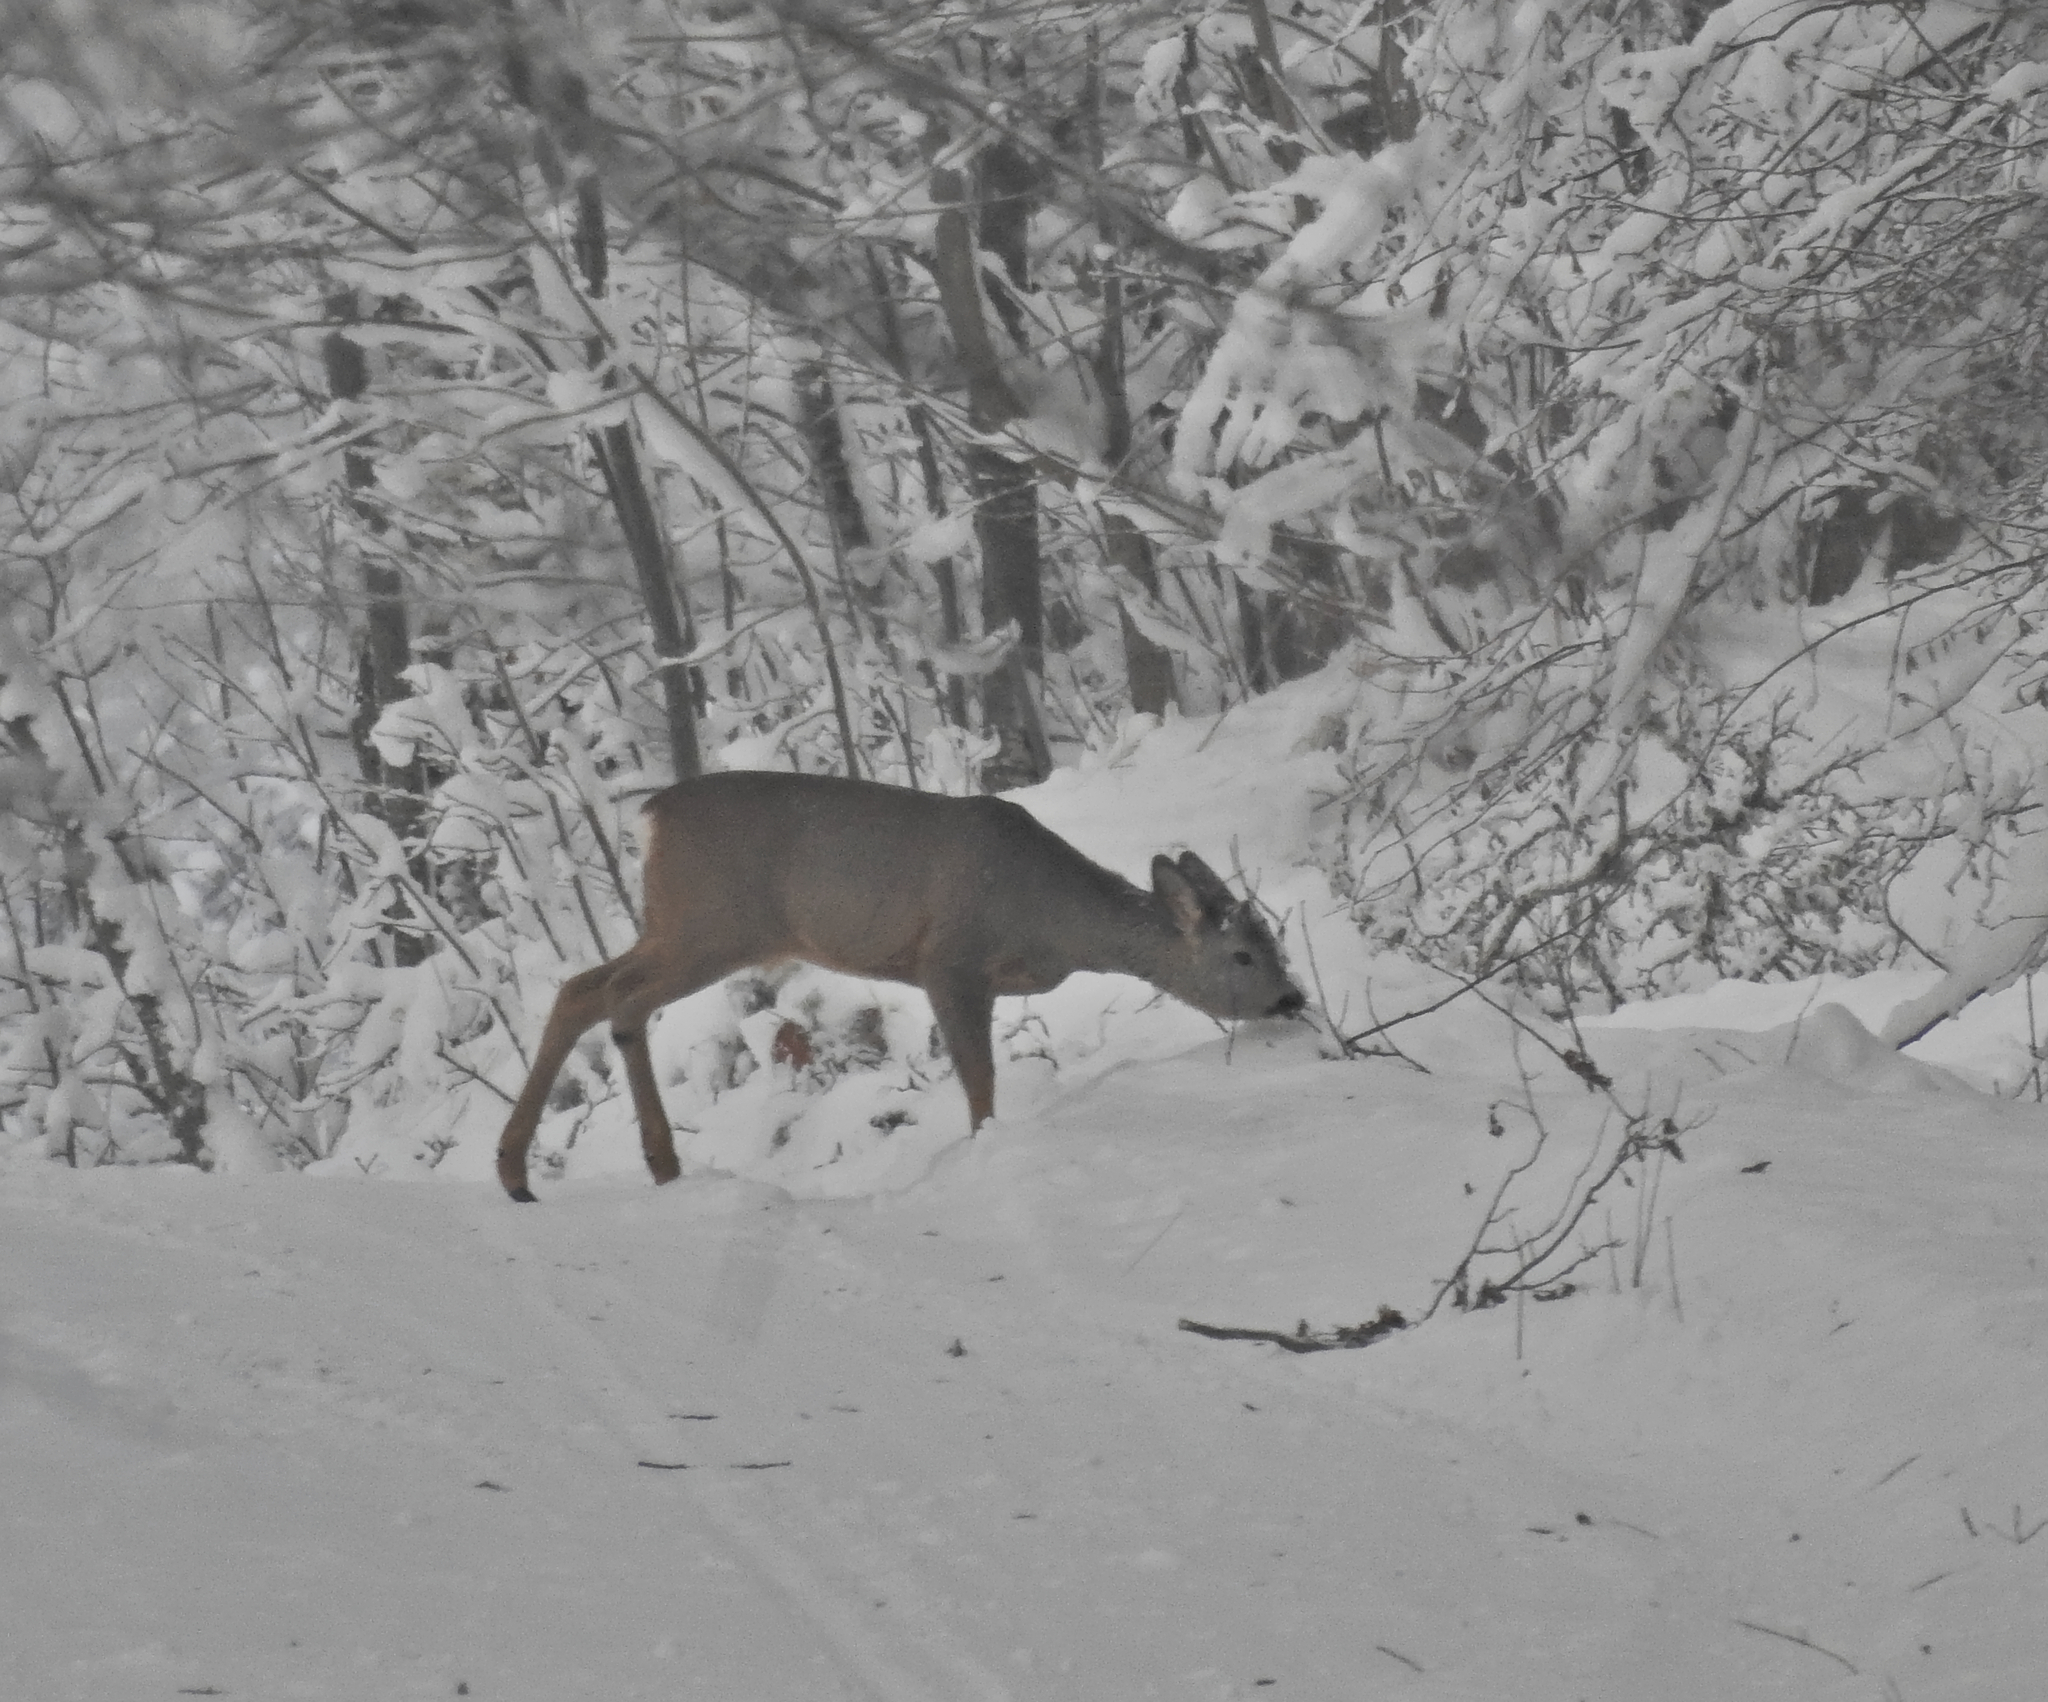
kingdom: Animalia
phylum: Chordata
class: Mammalia
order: Artiodactyla
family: Cervidae
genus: Capreolus
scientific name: Capreolus capreolus
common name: Western roe deer
